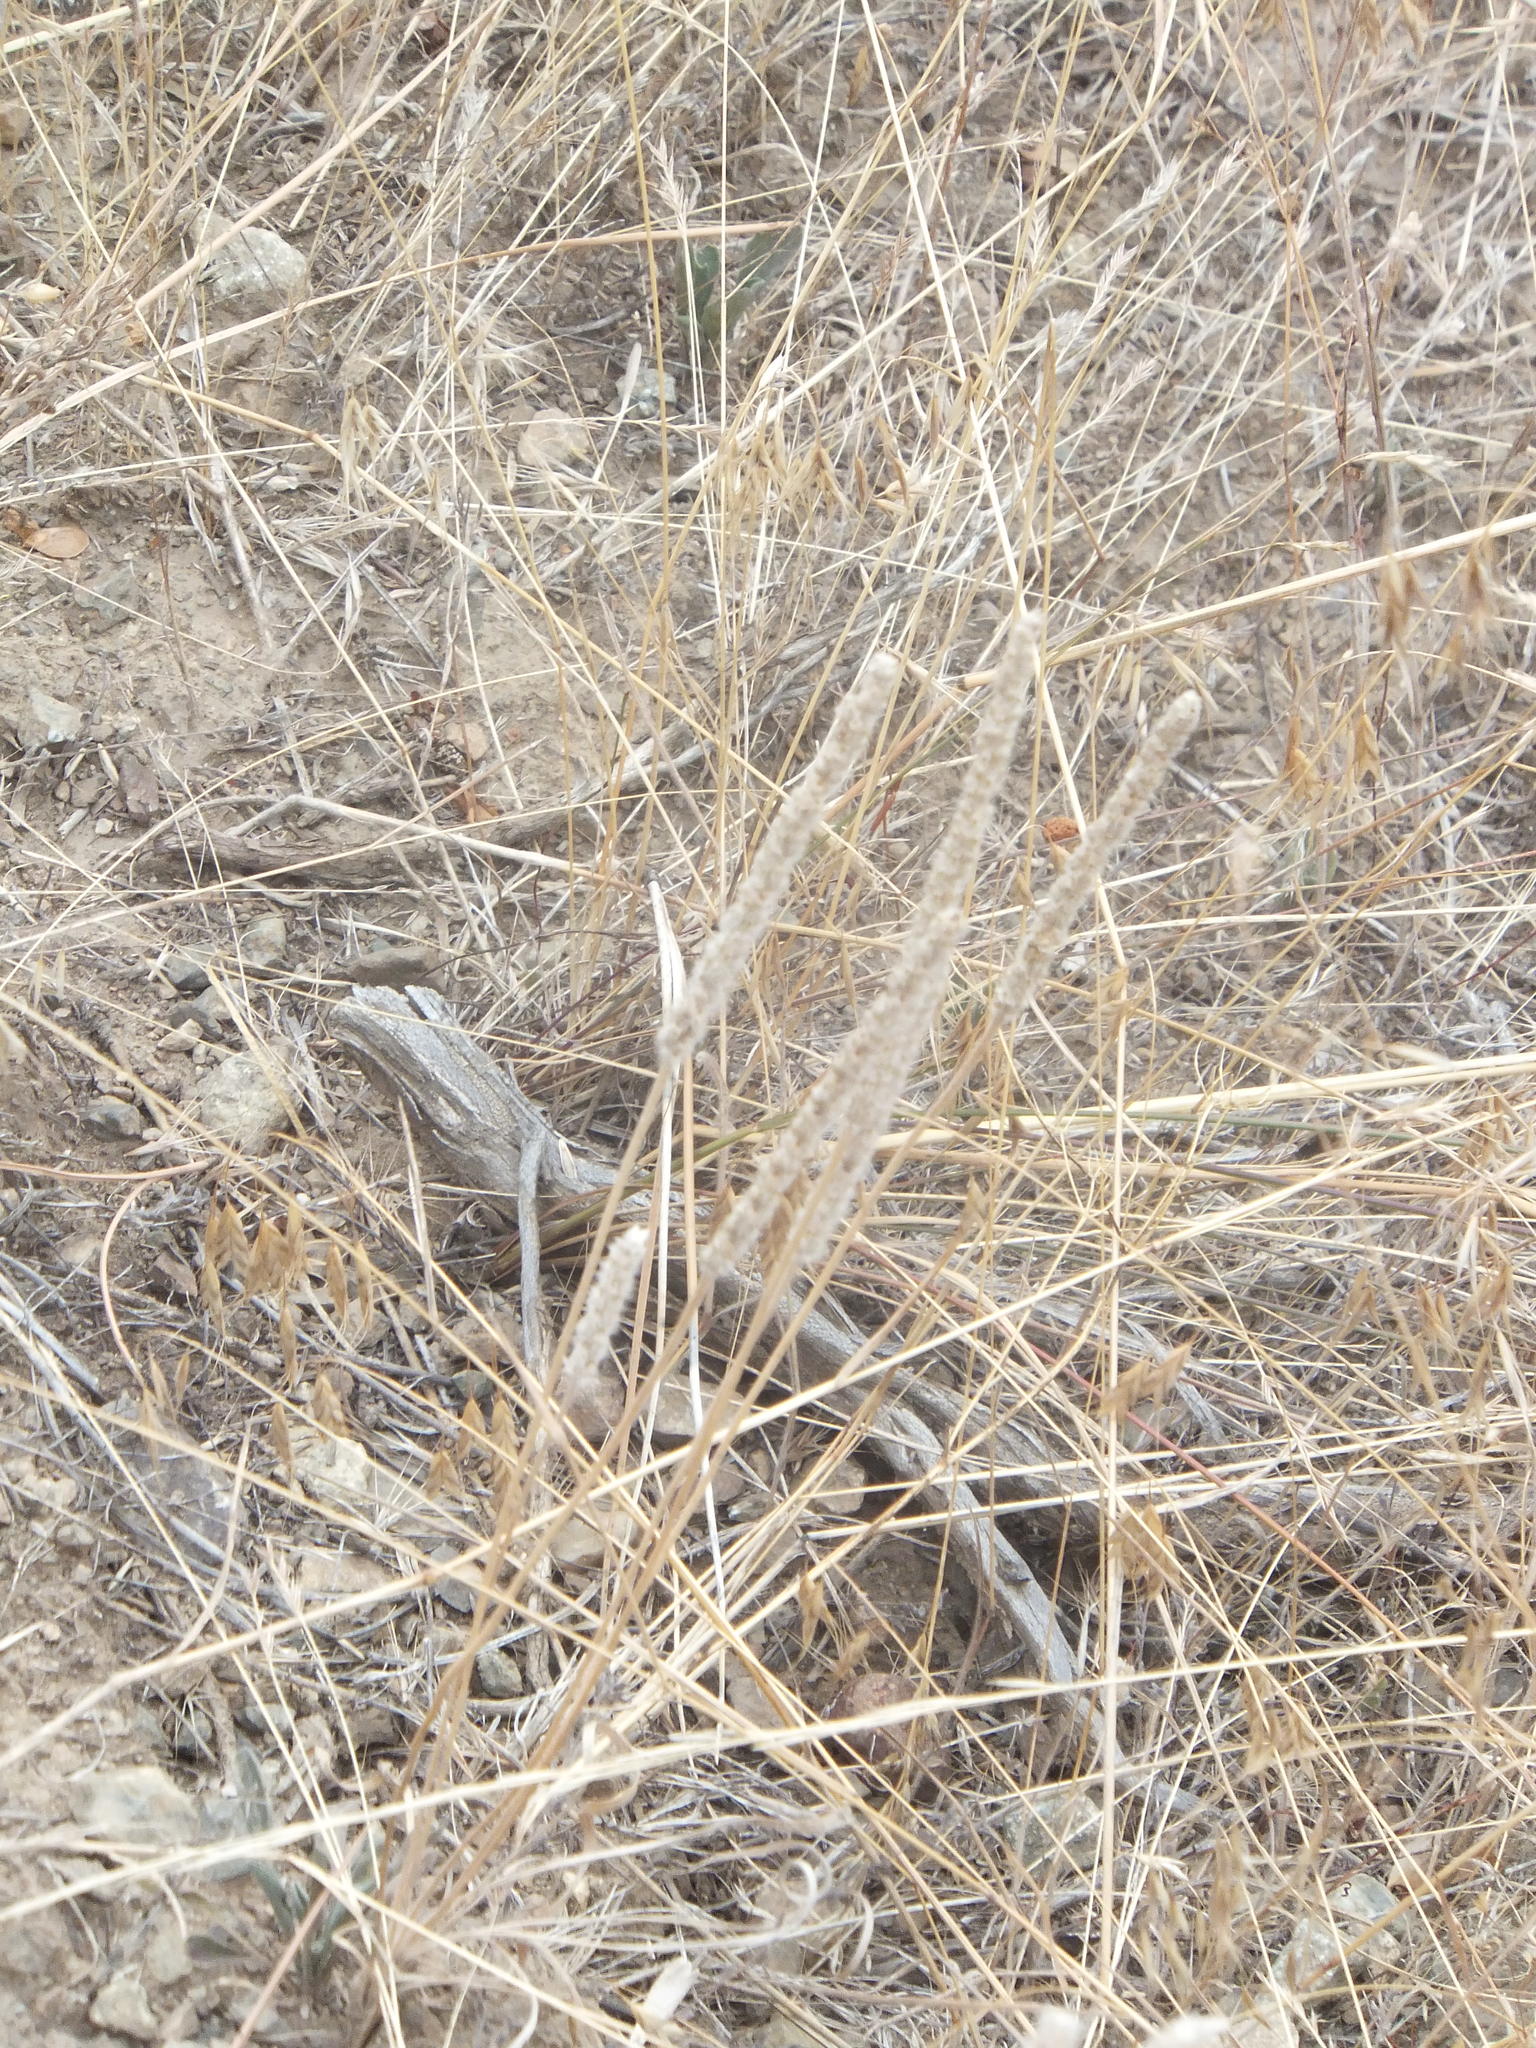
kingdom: Plantae
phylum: Tracheophyta
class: Magnoliopsida
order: Lamiales
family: Plantaginaceae
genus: Plantago
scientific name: Plantago patagonica
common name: Patagonia indian-wheat
